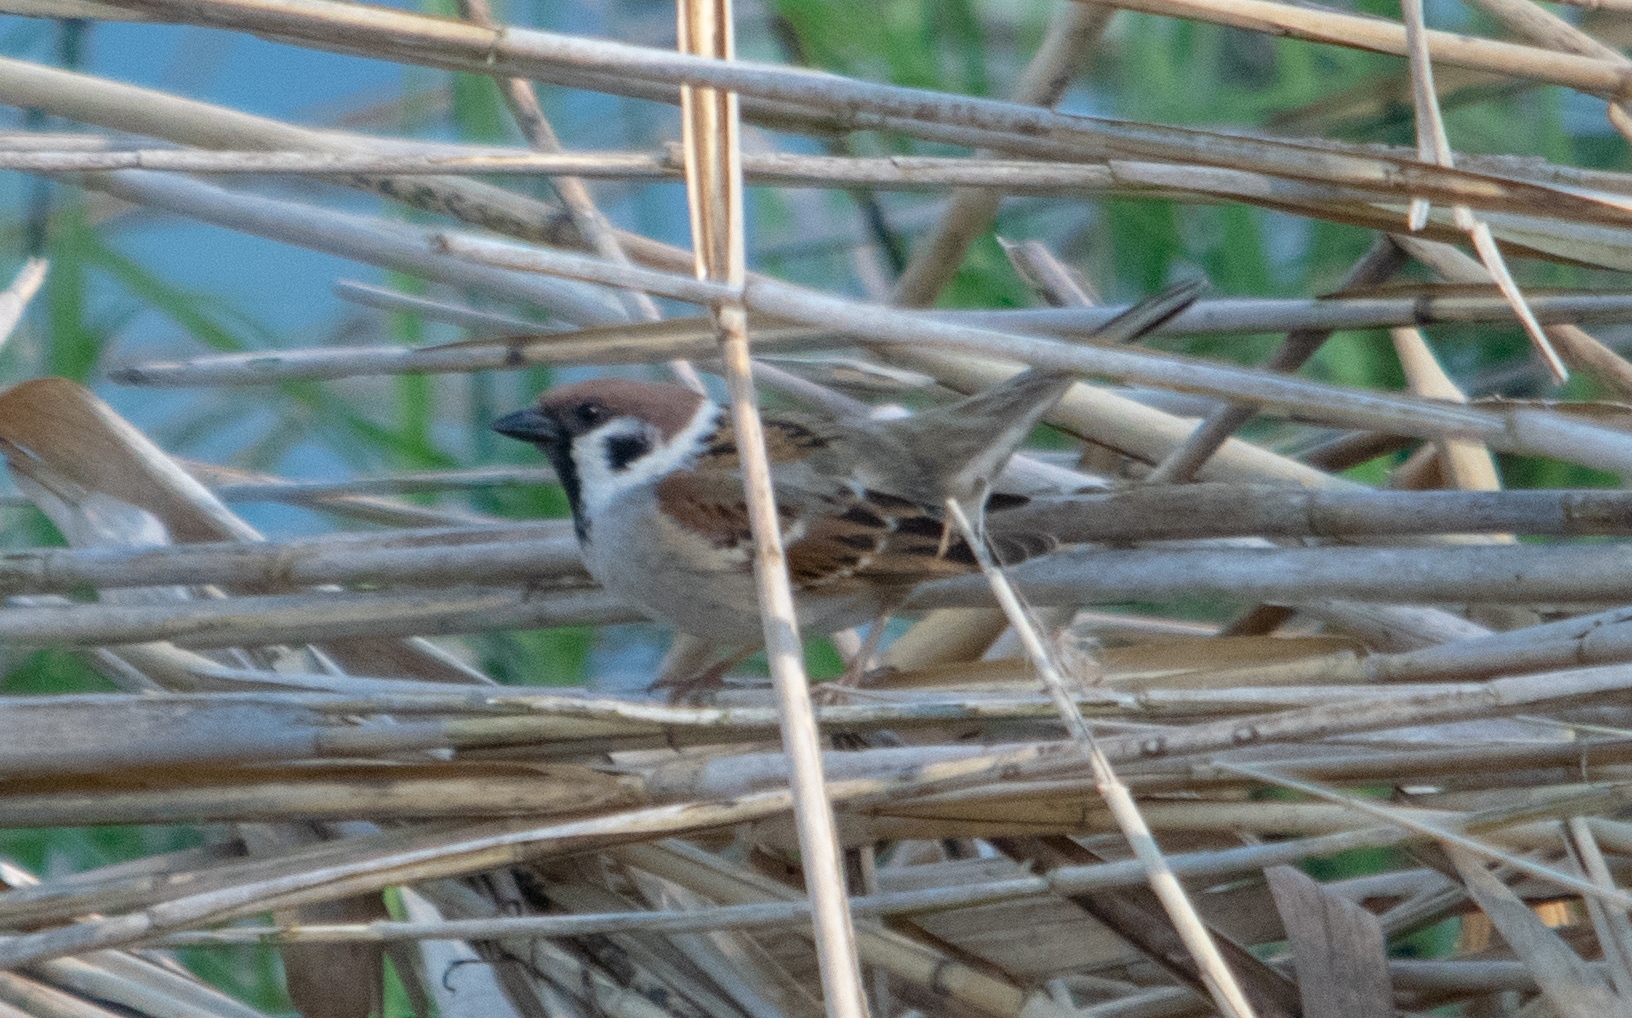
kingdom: Animalia
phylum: Chordata
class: Aves
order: Passeriformes
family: Passeridae
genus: Passer
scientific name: Passer montanus
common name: Eurasian tree sparrow
